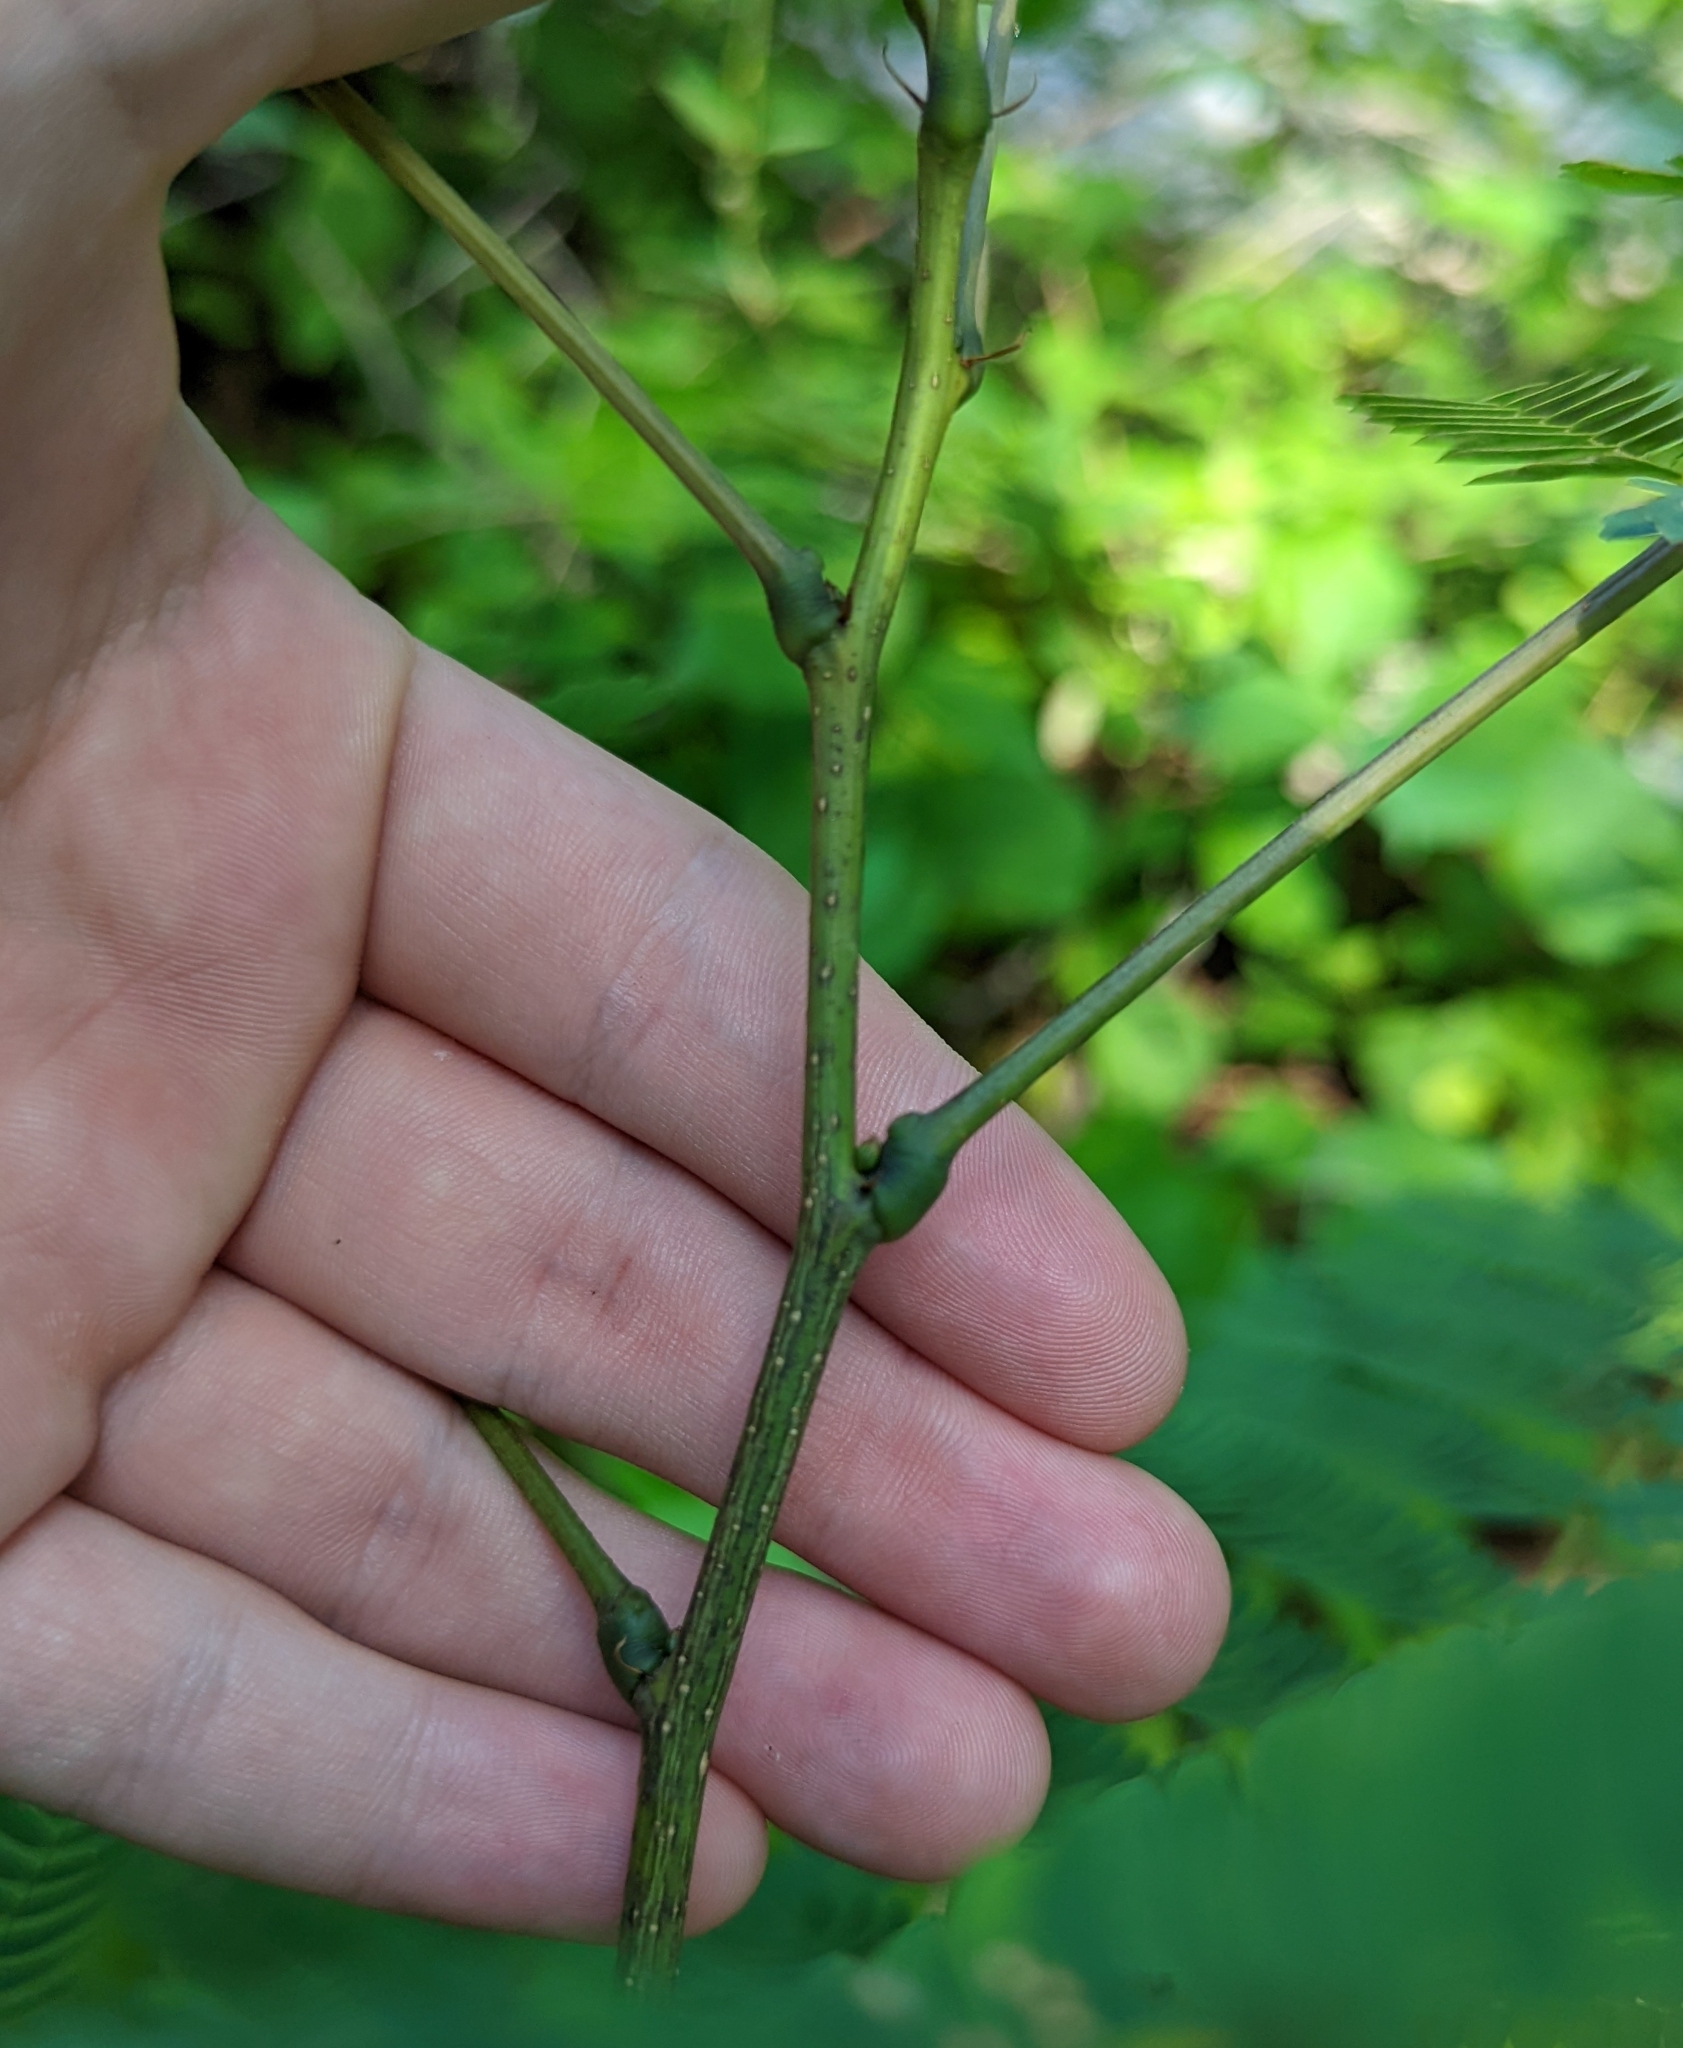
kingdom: Plantae
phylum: Tracheophyta
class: Magnoliopsida
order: Fabales
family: Fabaceae
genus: Albizia
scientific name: Albizia julibrissin
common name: Silktree
